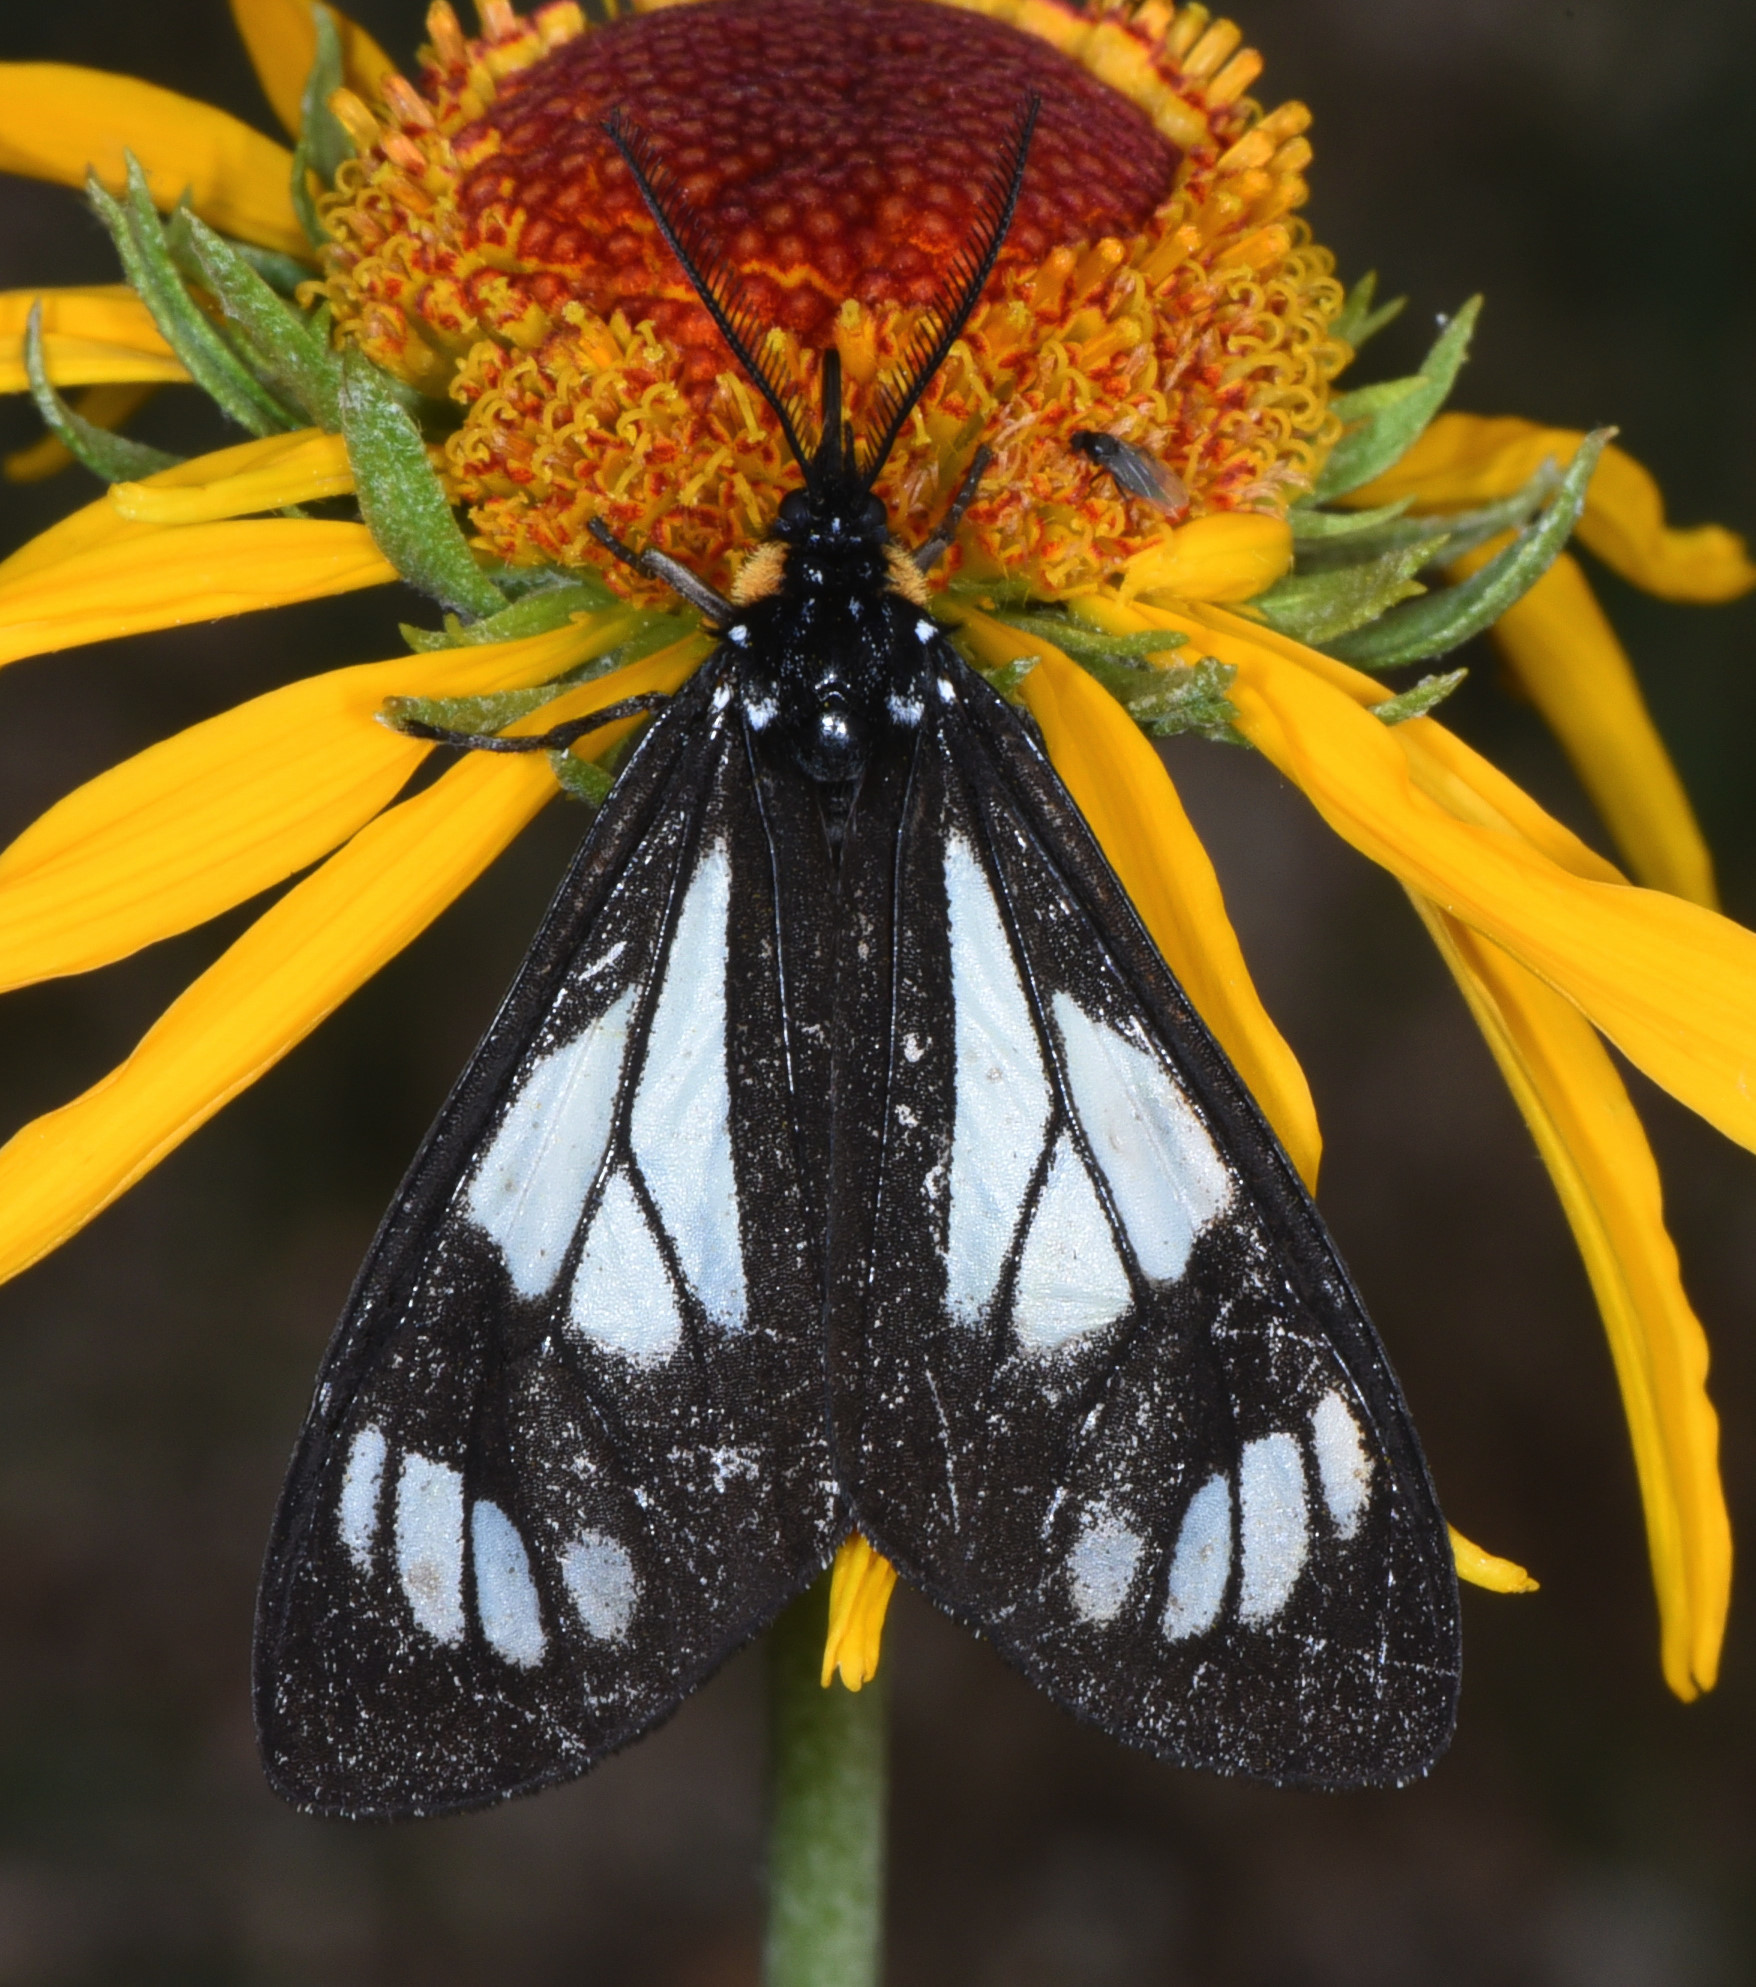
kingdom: Animalia
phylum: Arthropoda
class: Insecta
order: Lepidoptera
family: Erebidae
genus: Gnophaela
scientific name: Gnophaela vermiculata
